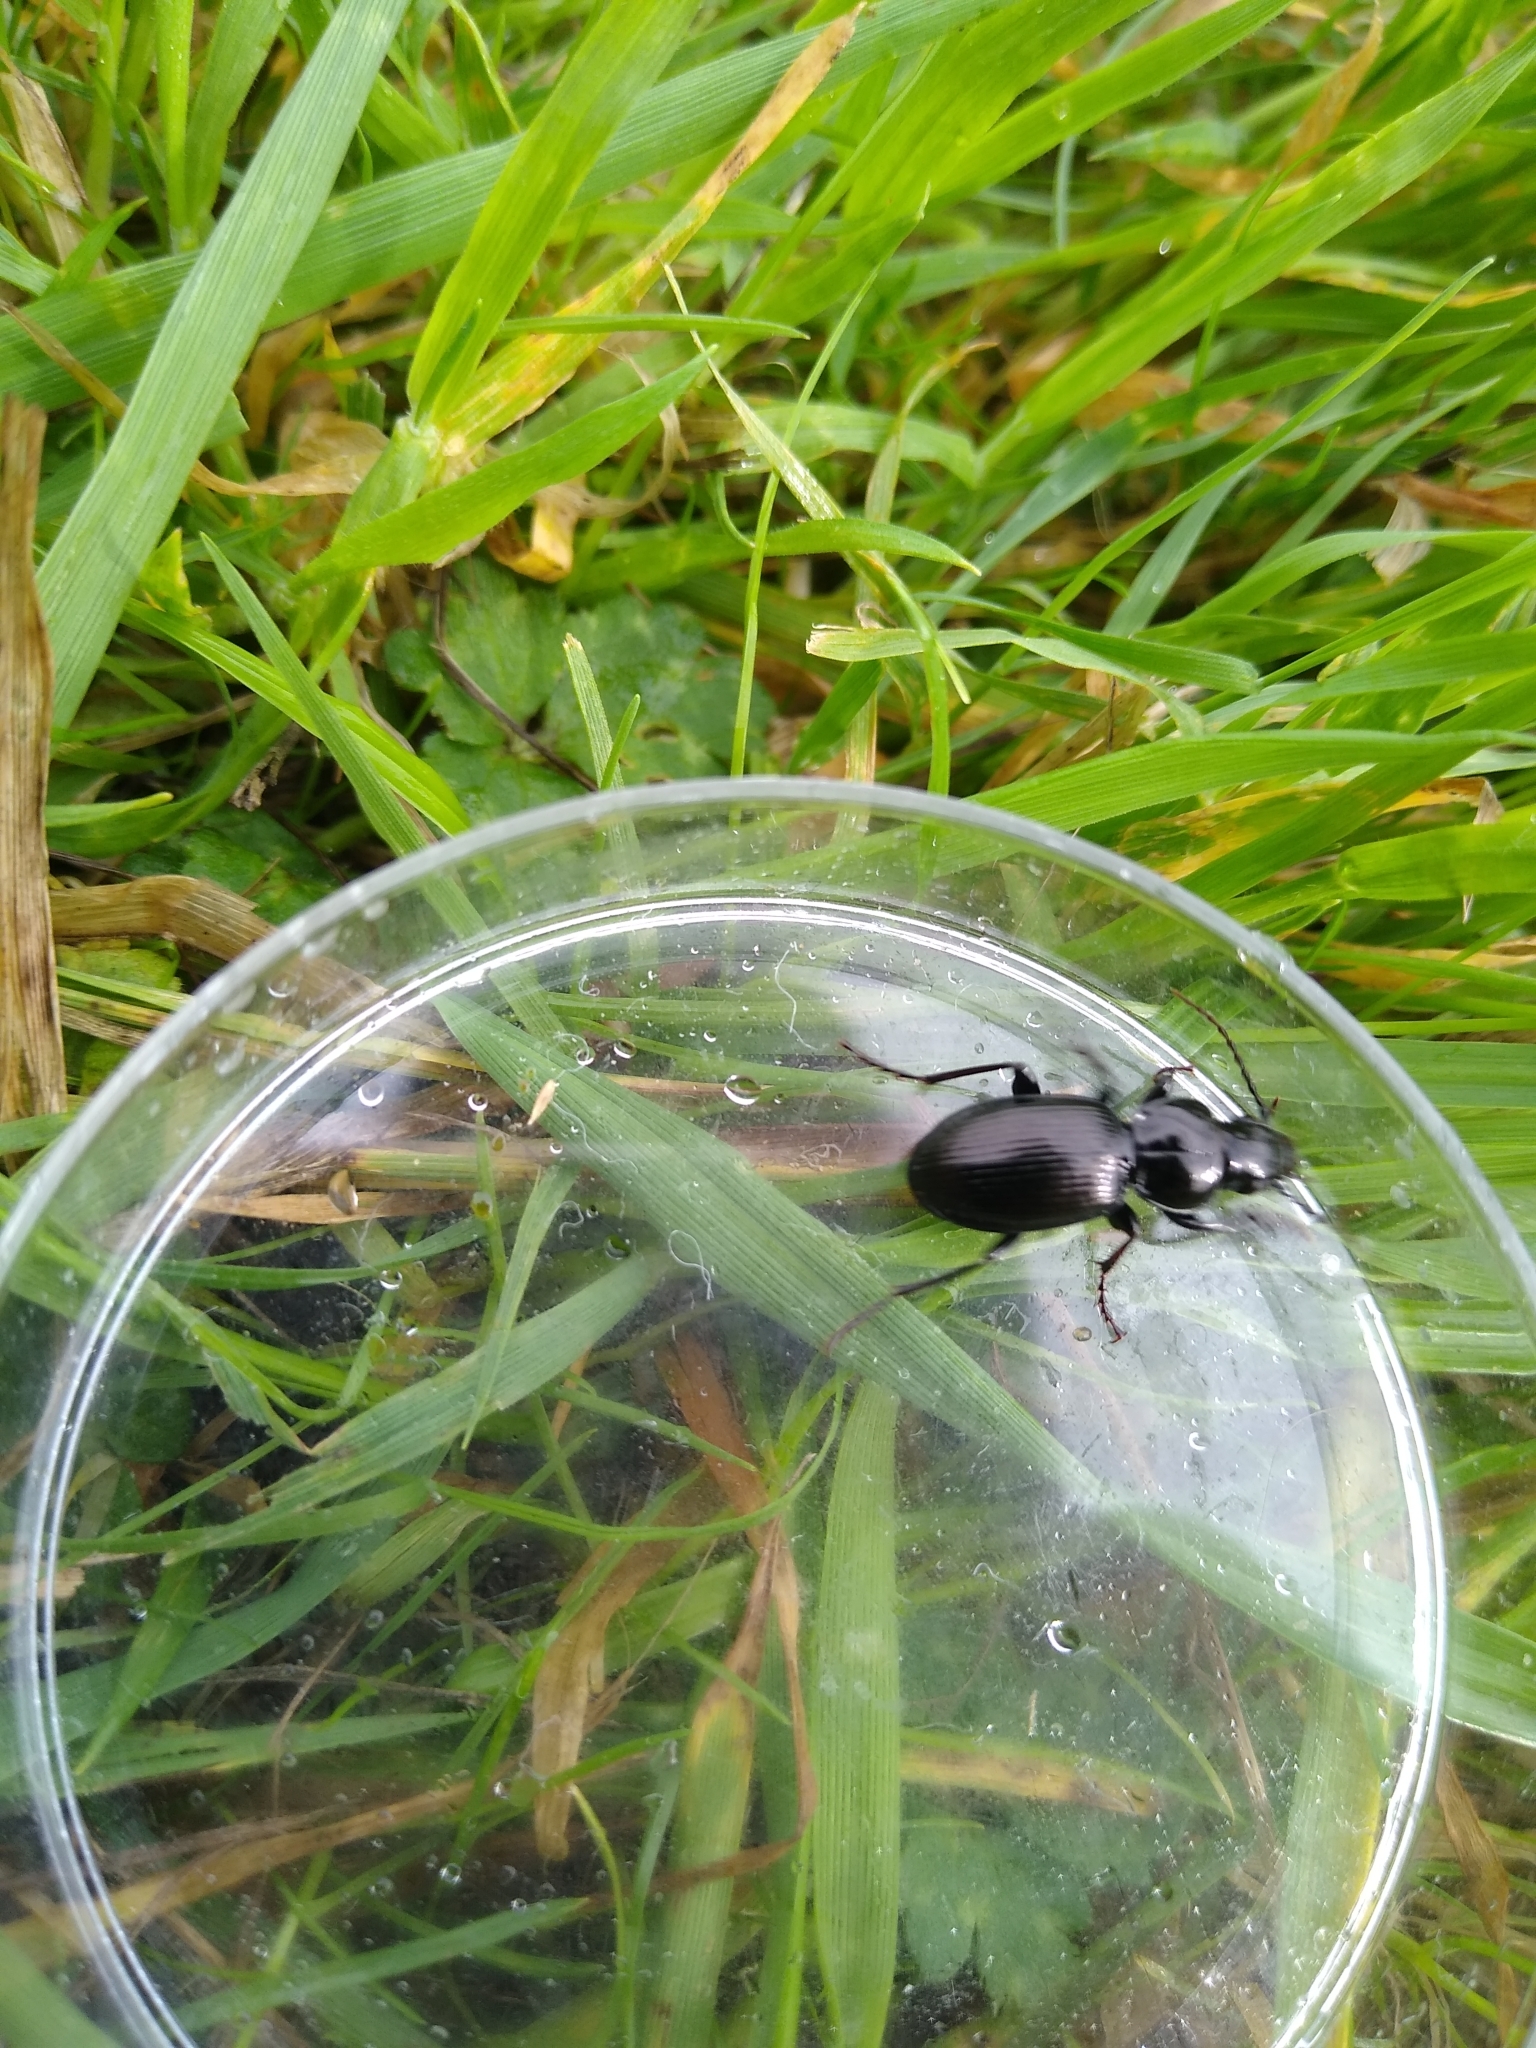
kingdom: Animalia
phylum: Arthropoda
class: Insecta
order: Coleoptera
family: Carabidae
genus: Pterostichus
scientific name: Pterostichus madidus
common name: Black clock
